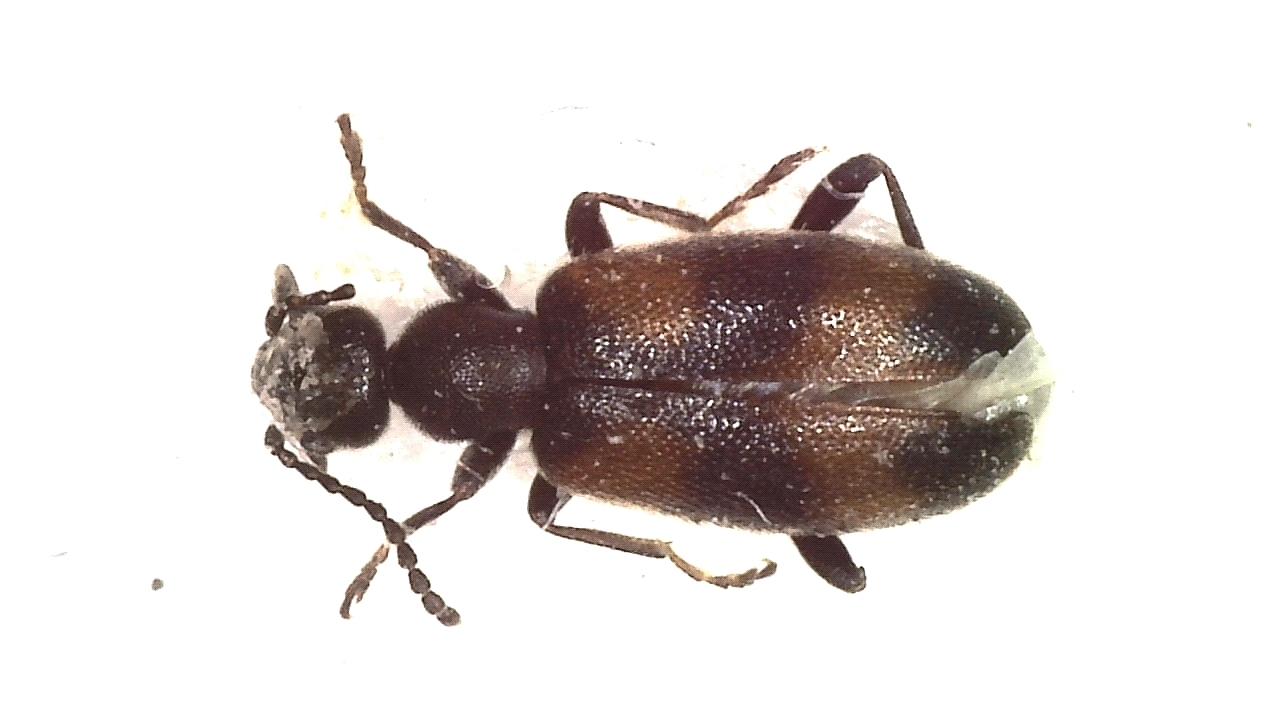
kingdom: Animalia
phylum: Arthropoda
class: Insecta
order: Coleoptera
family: Anthicidae
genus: Anthicus
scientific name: Anthicus antherinus
